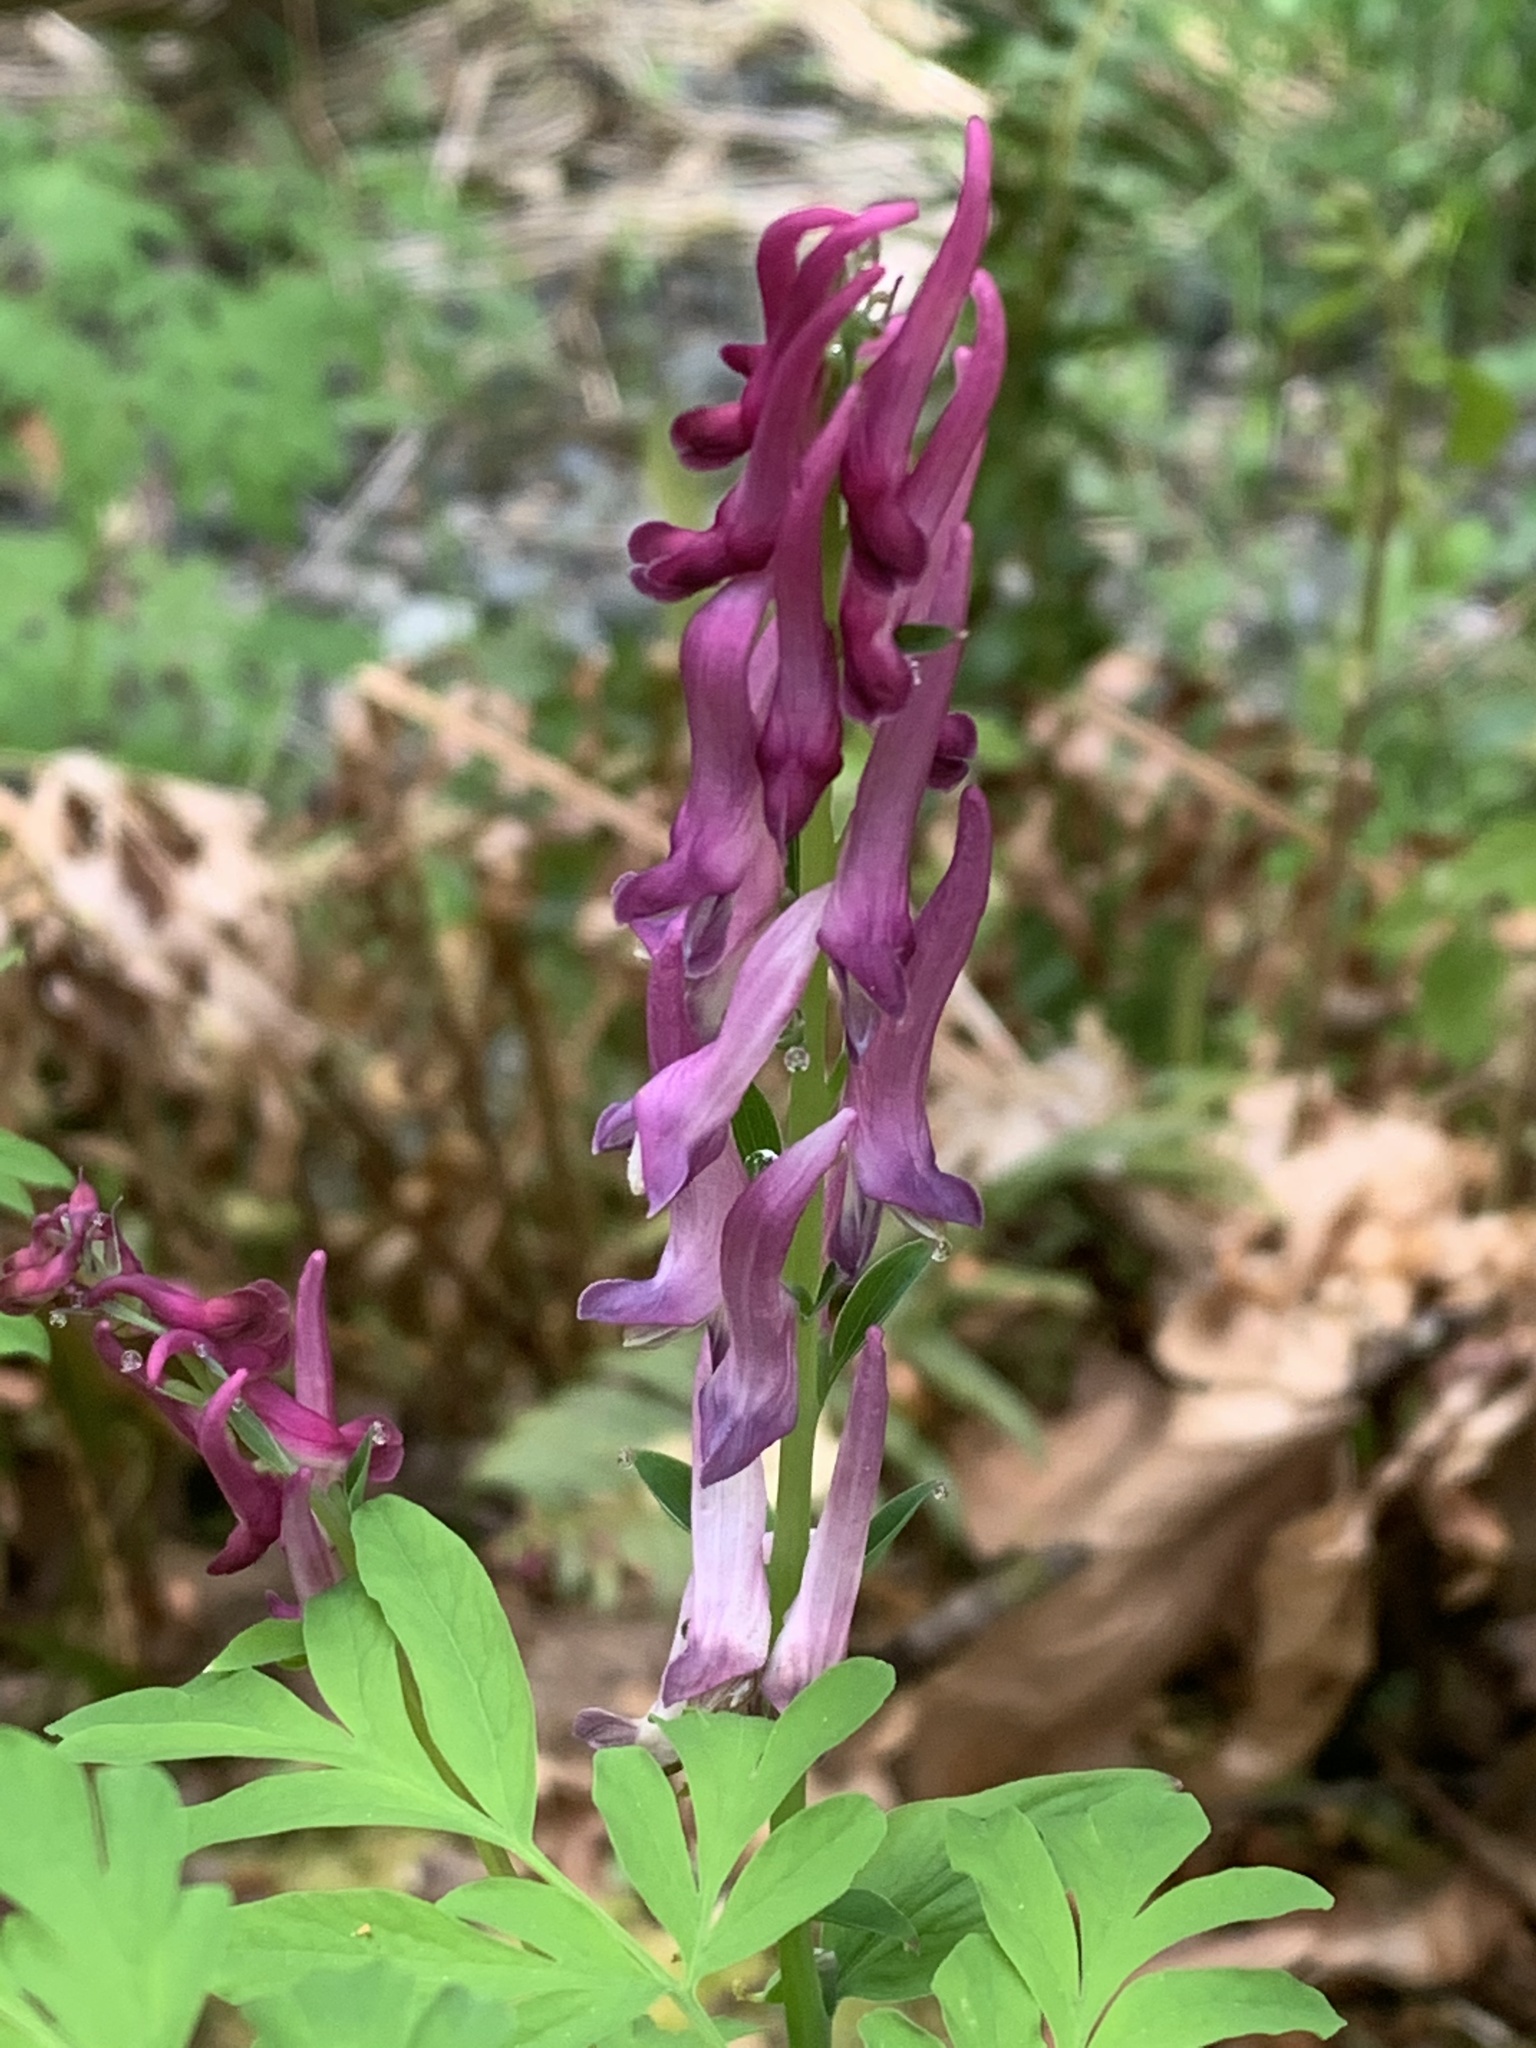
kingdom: Plantae
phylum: Tracheophyta
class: Magnoliopsida
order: Ranunculales
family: Papaveraceae
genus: Corydalis
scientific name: Corydalis scouleri
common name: Scouler's corydalis
